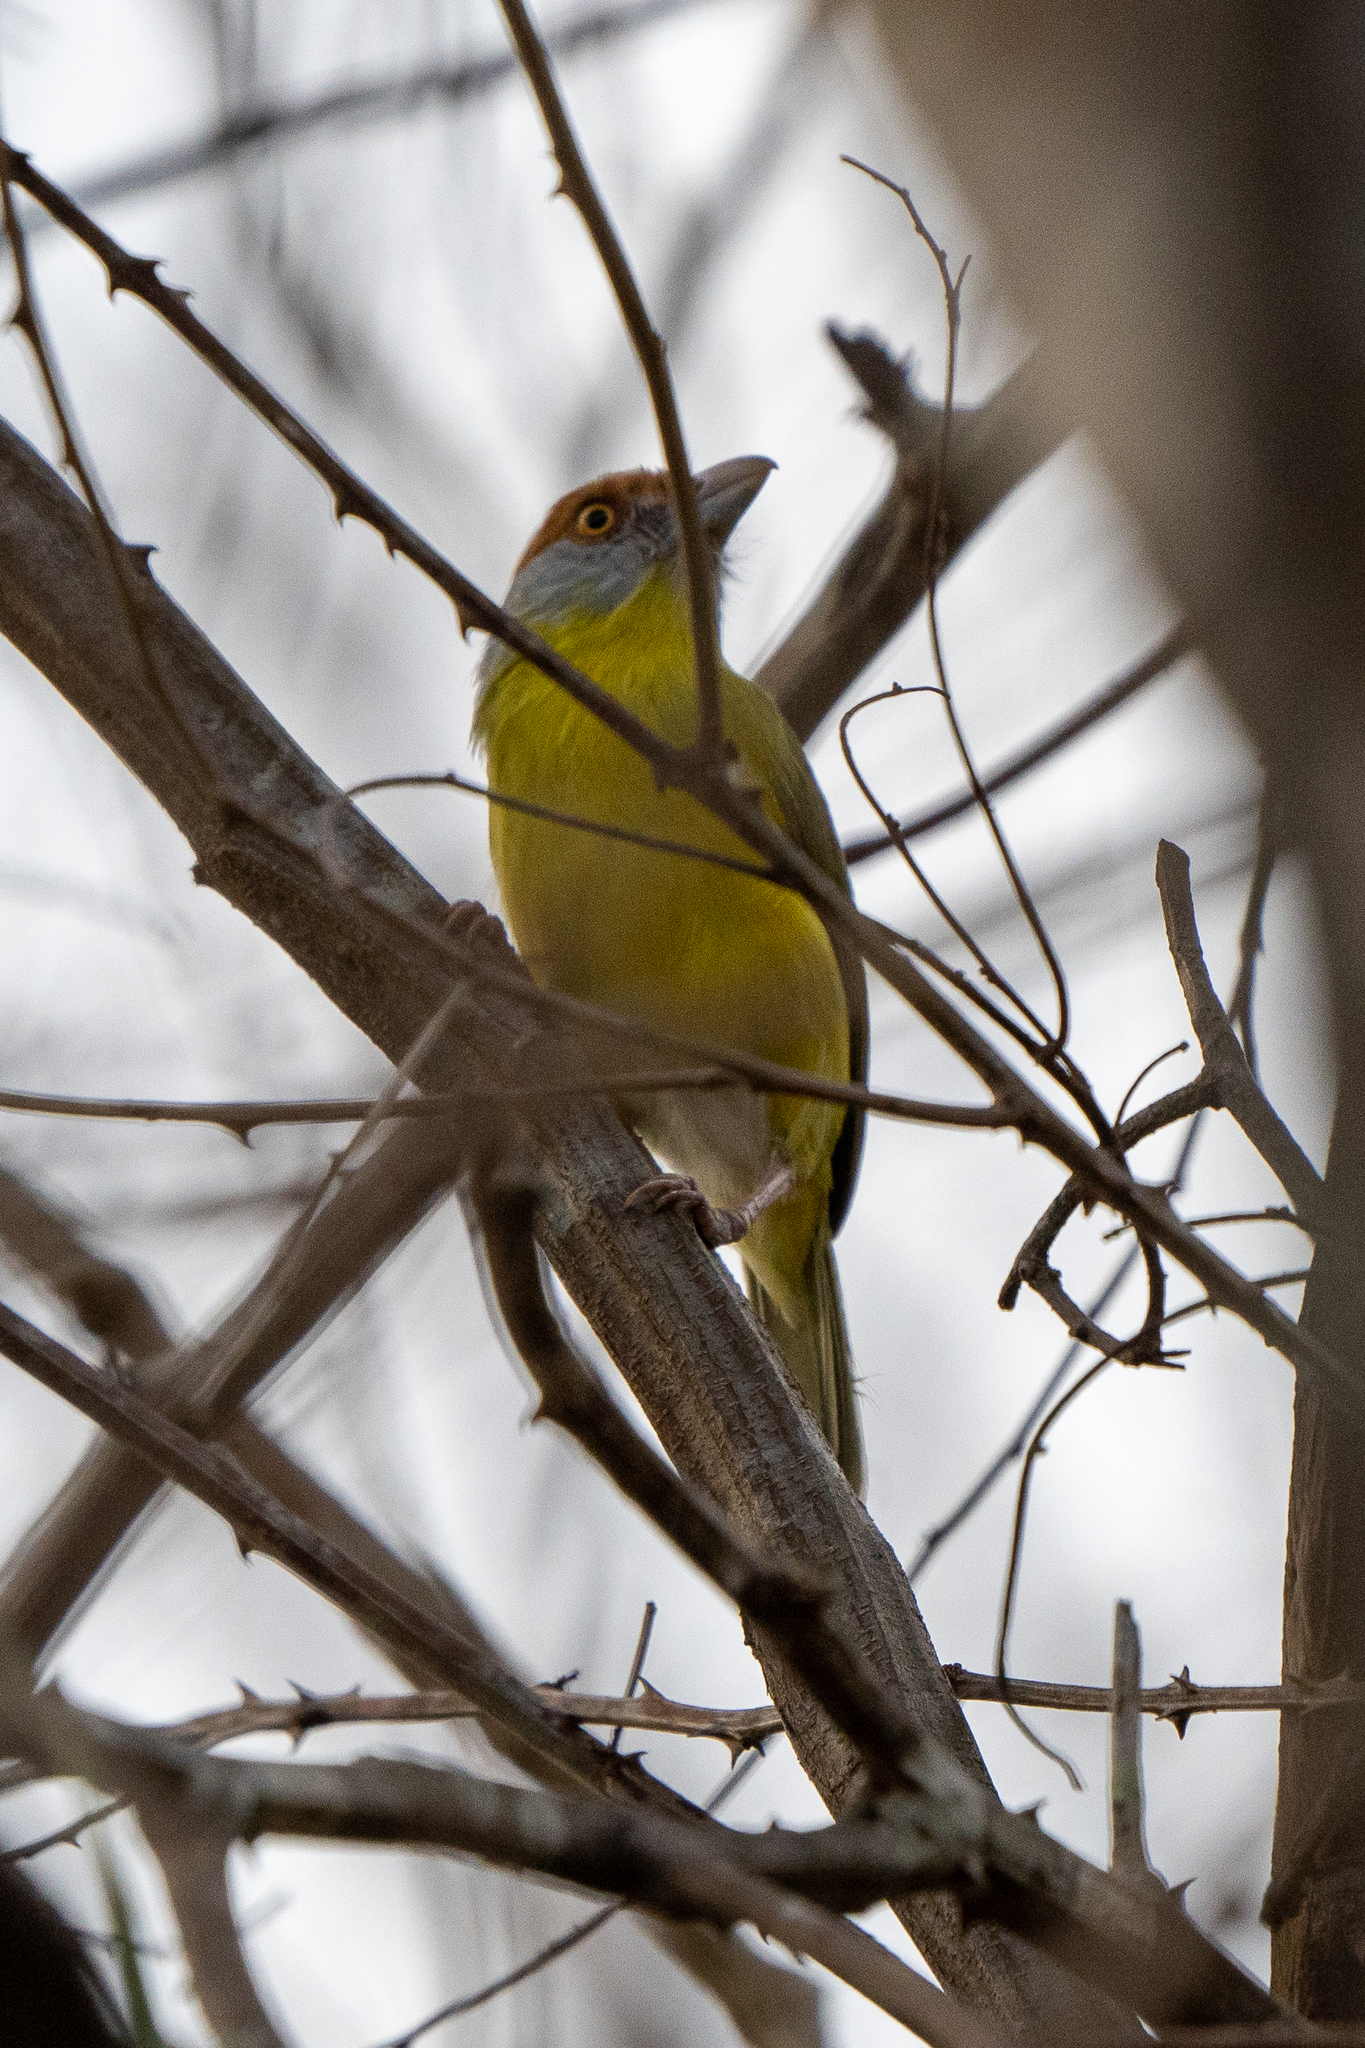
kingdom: Animalia
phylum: Chordata
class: Aves
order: Passeriformes
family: Vireonidae
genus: Cyclarhis
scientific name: Cyclarhis gujanensis
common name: Rufous-browed peppershrike
